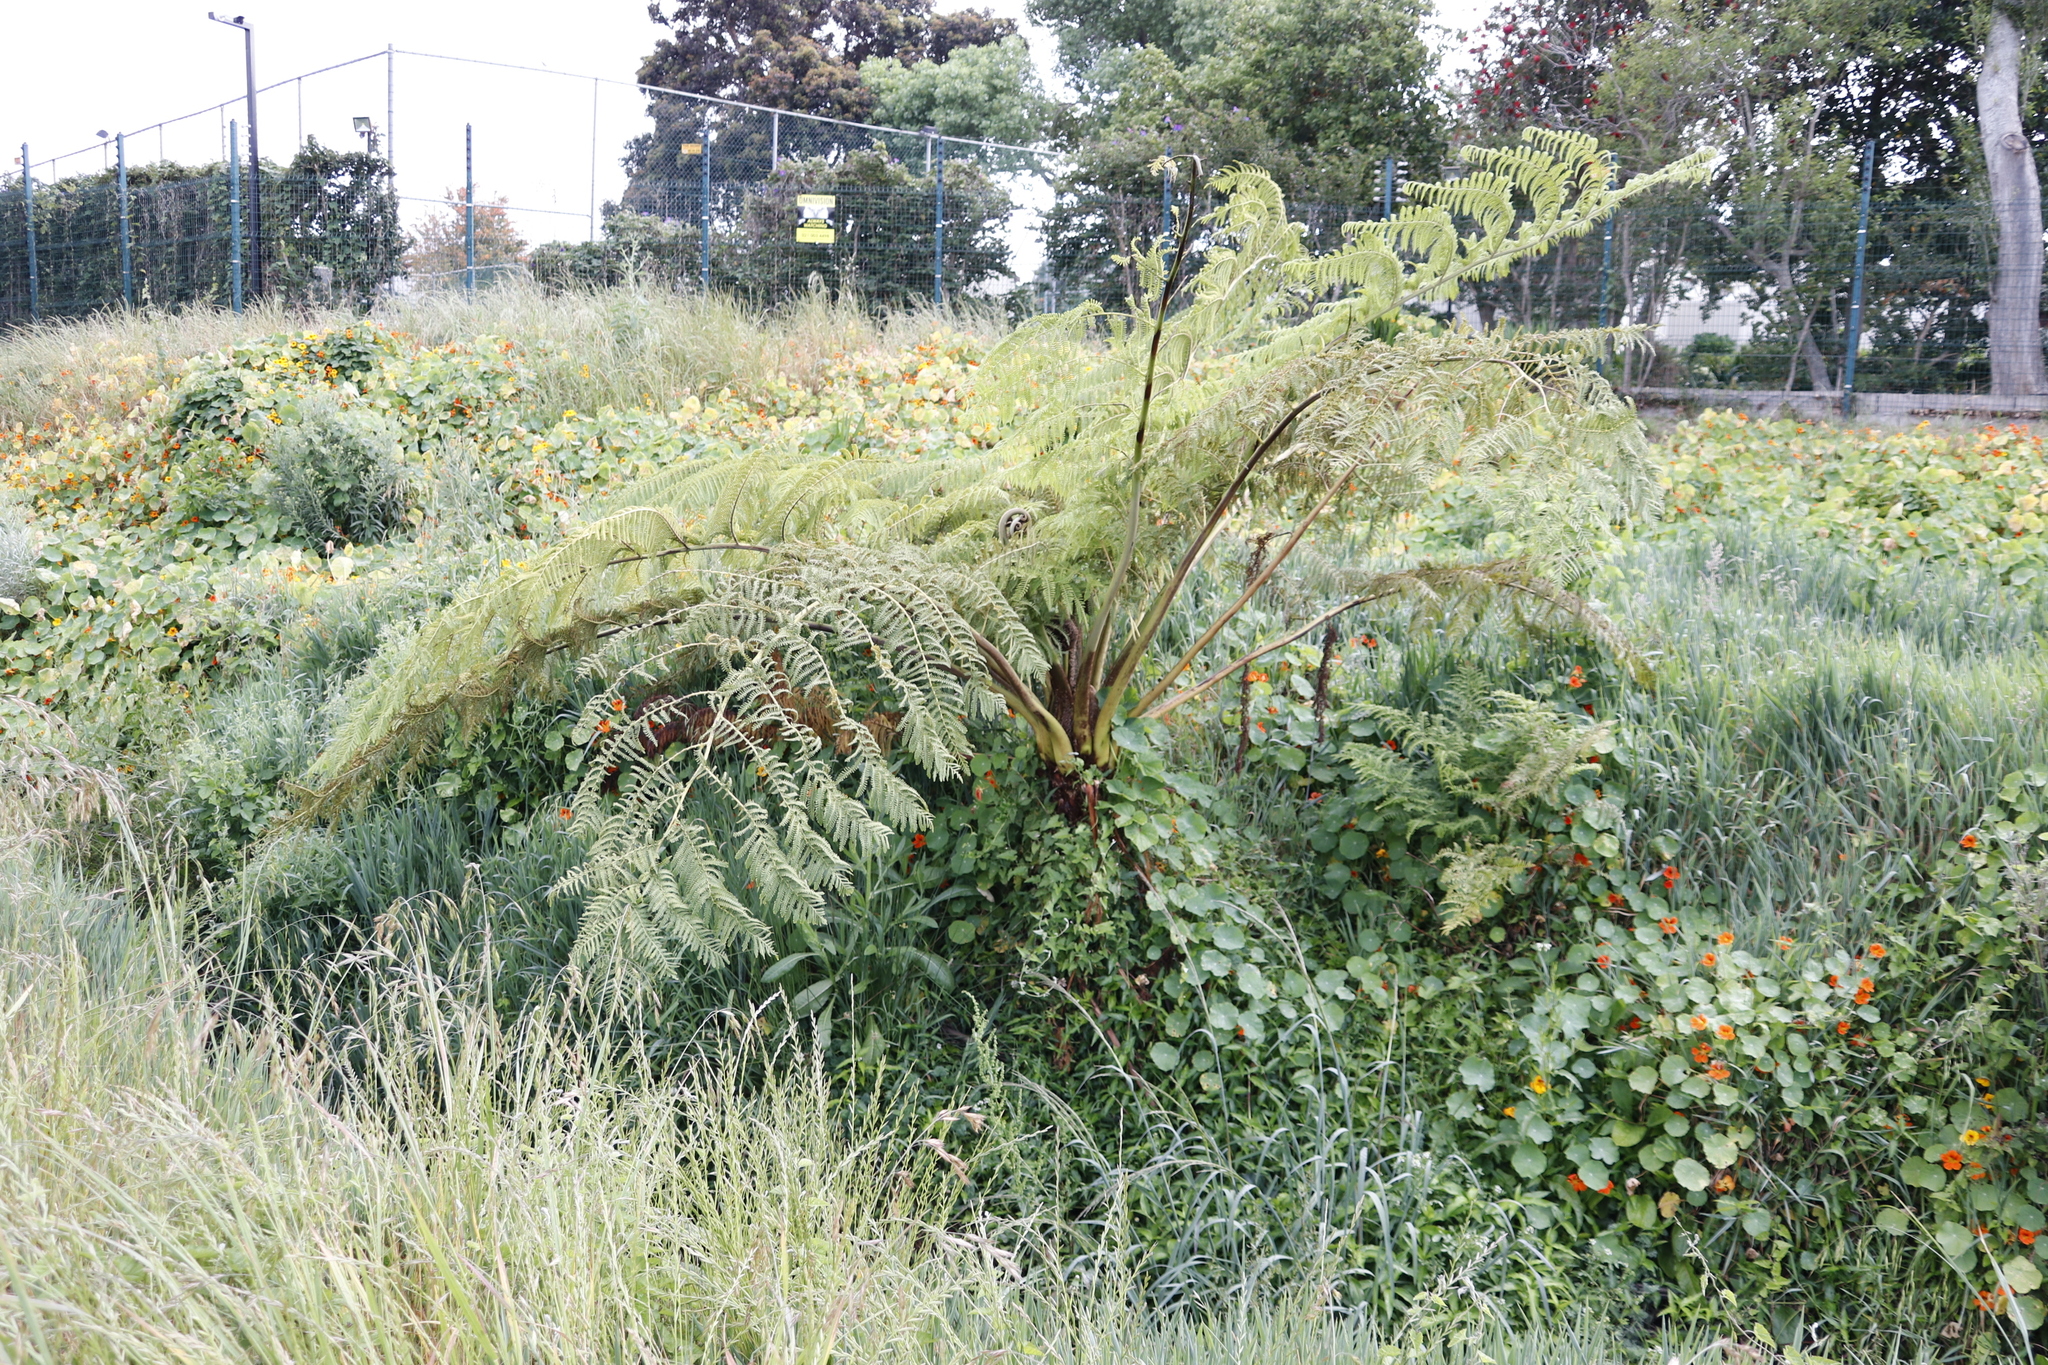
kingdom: Plantae
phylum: Tracheophyta
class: Polypodiopsida
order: Cyatheales
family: Cyatheaceae
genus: Sphaeropteris
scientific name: Sphaeropteris cooperi
